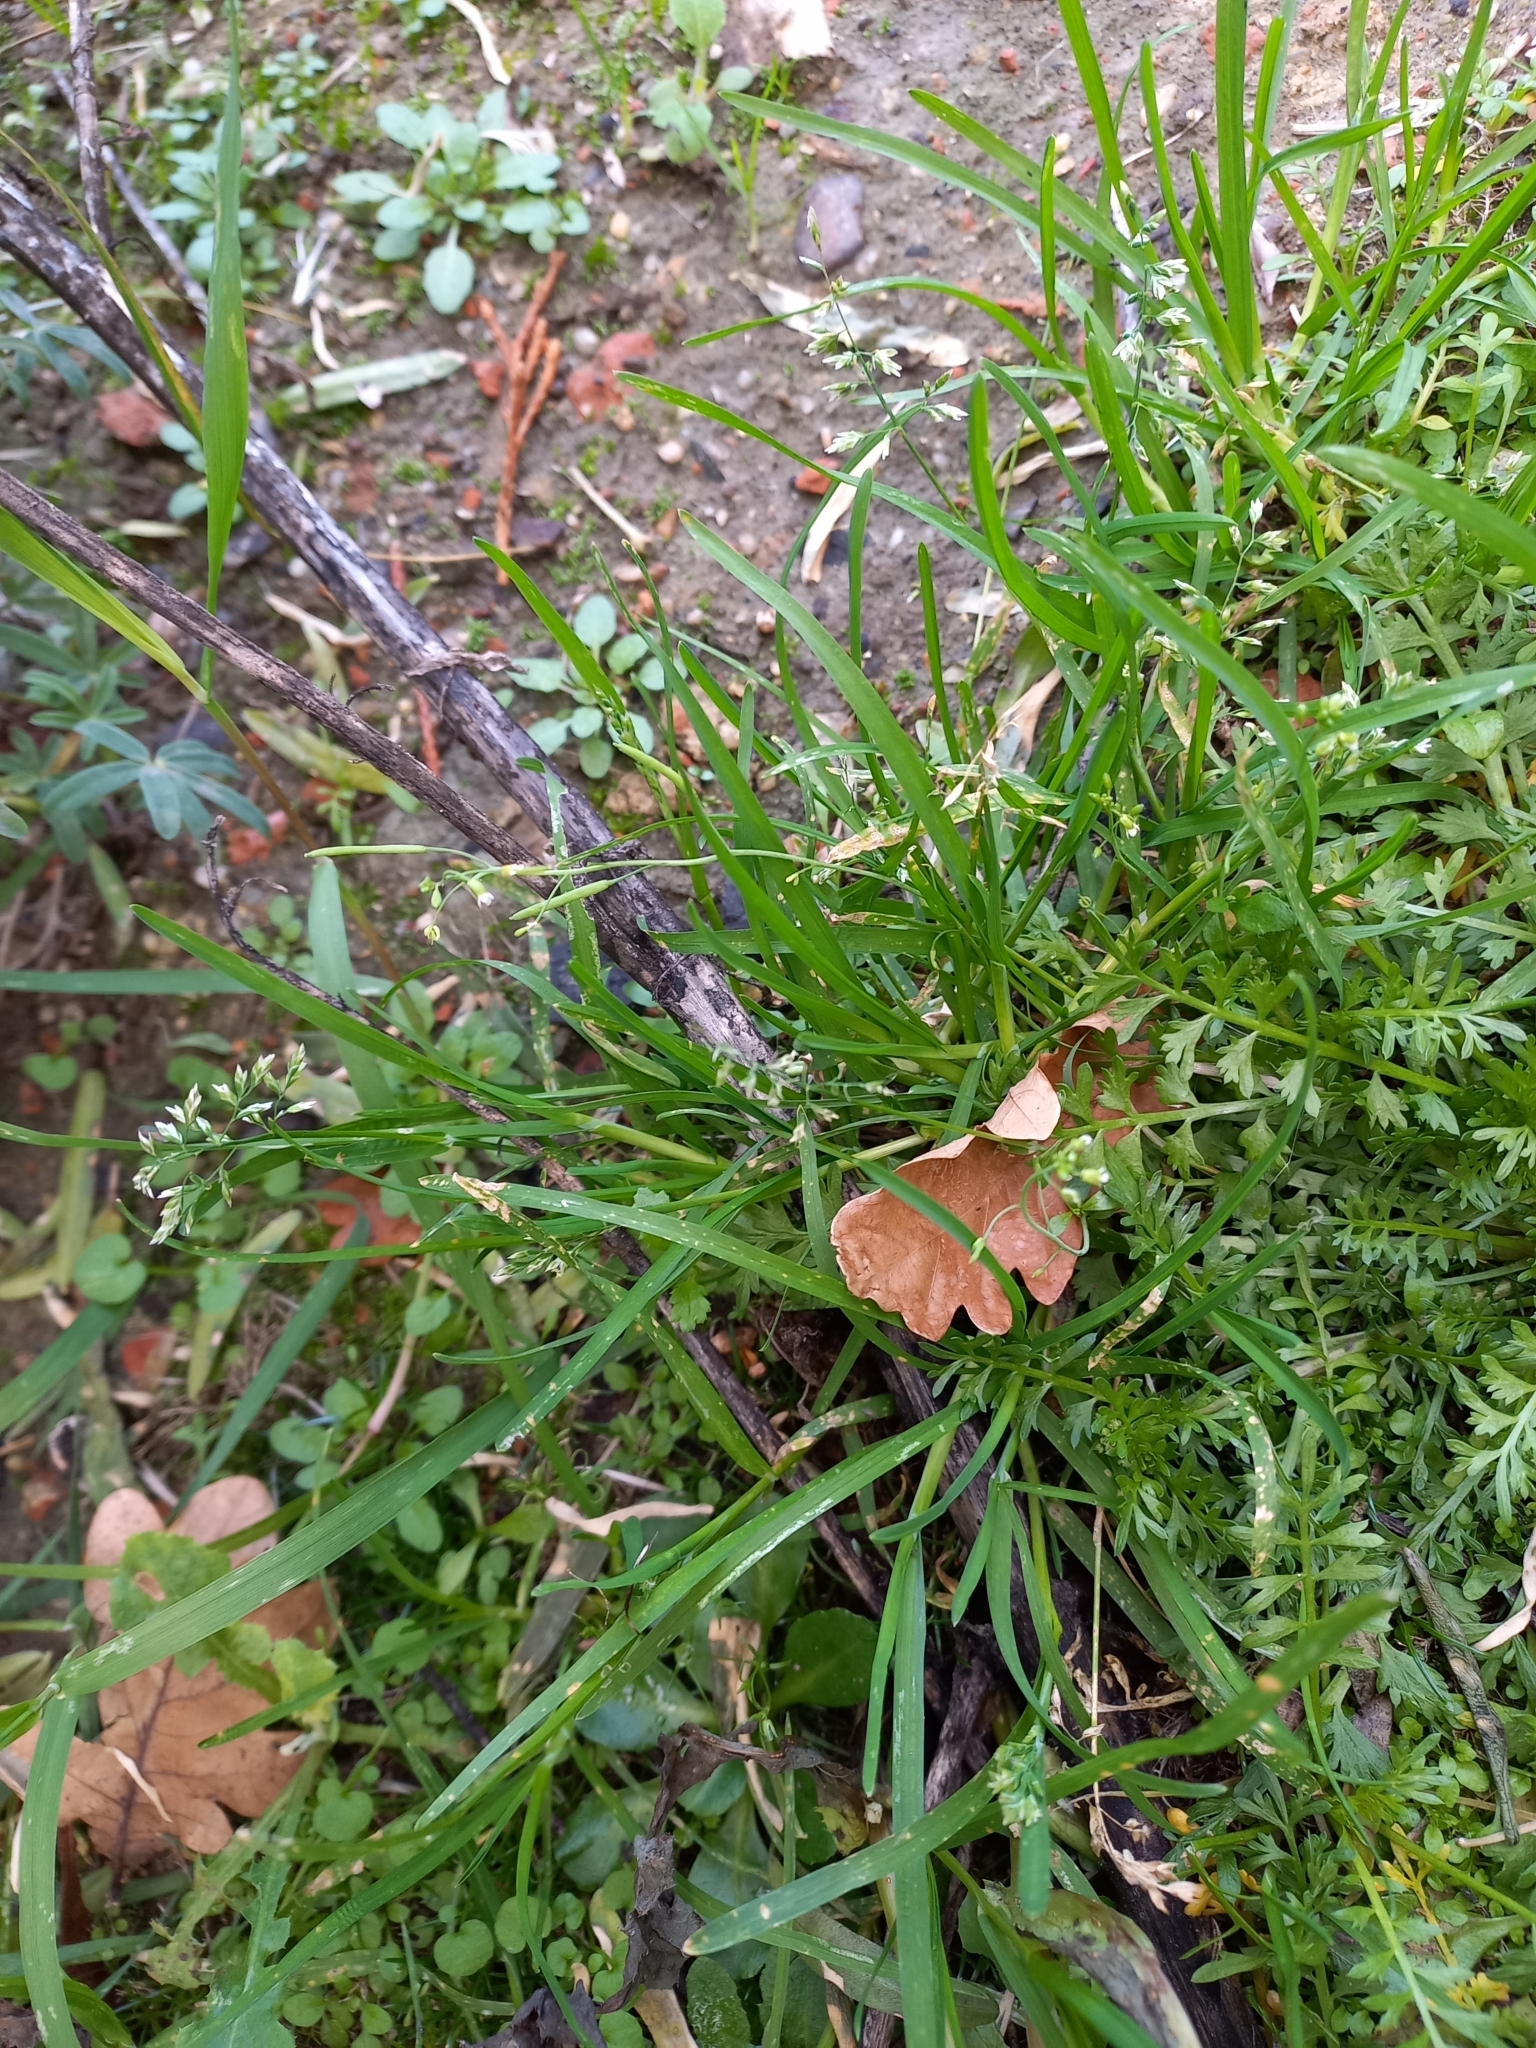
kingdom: Plantae
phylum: Tracheophyta
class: Liliopsida
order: Poales
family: Poaceae
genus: Poa
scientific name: Poa annua
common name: Annual bluegrass
